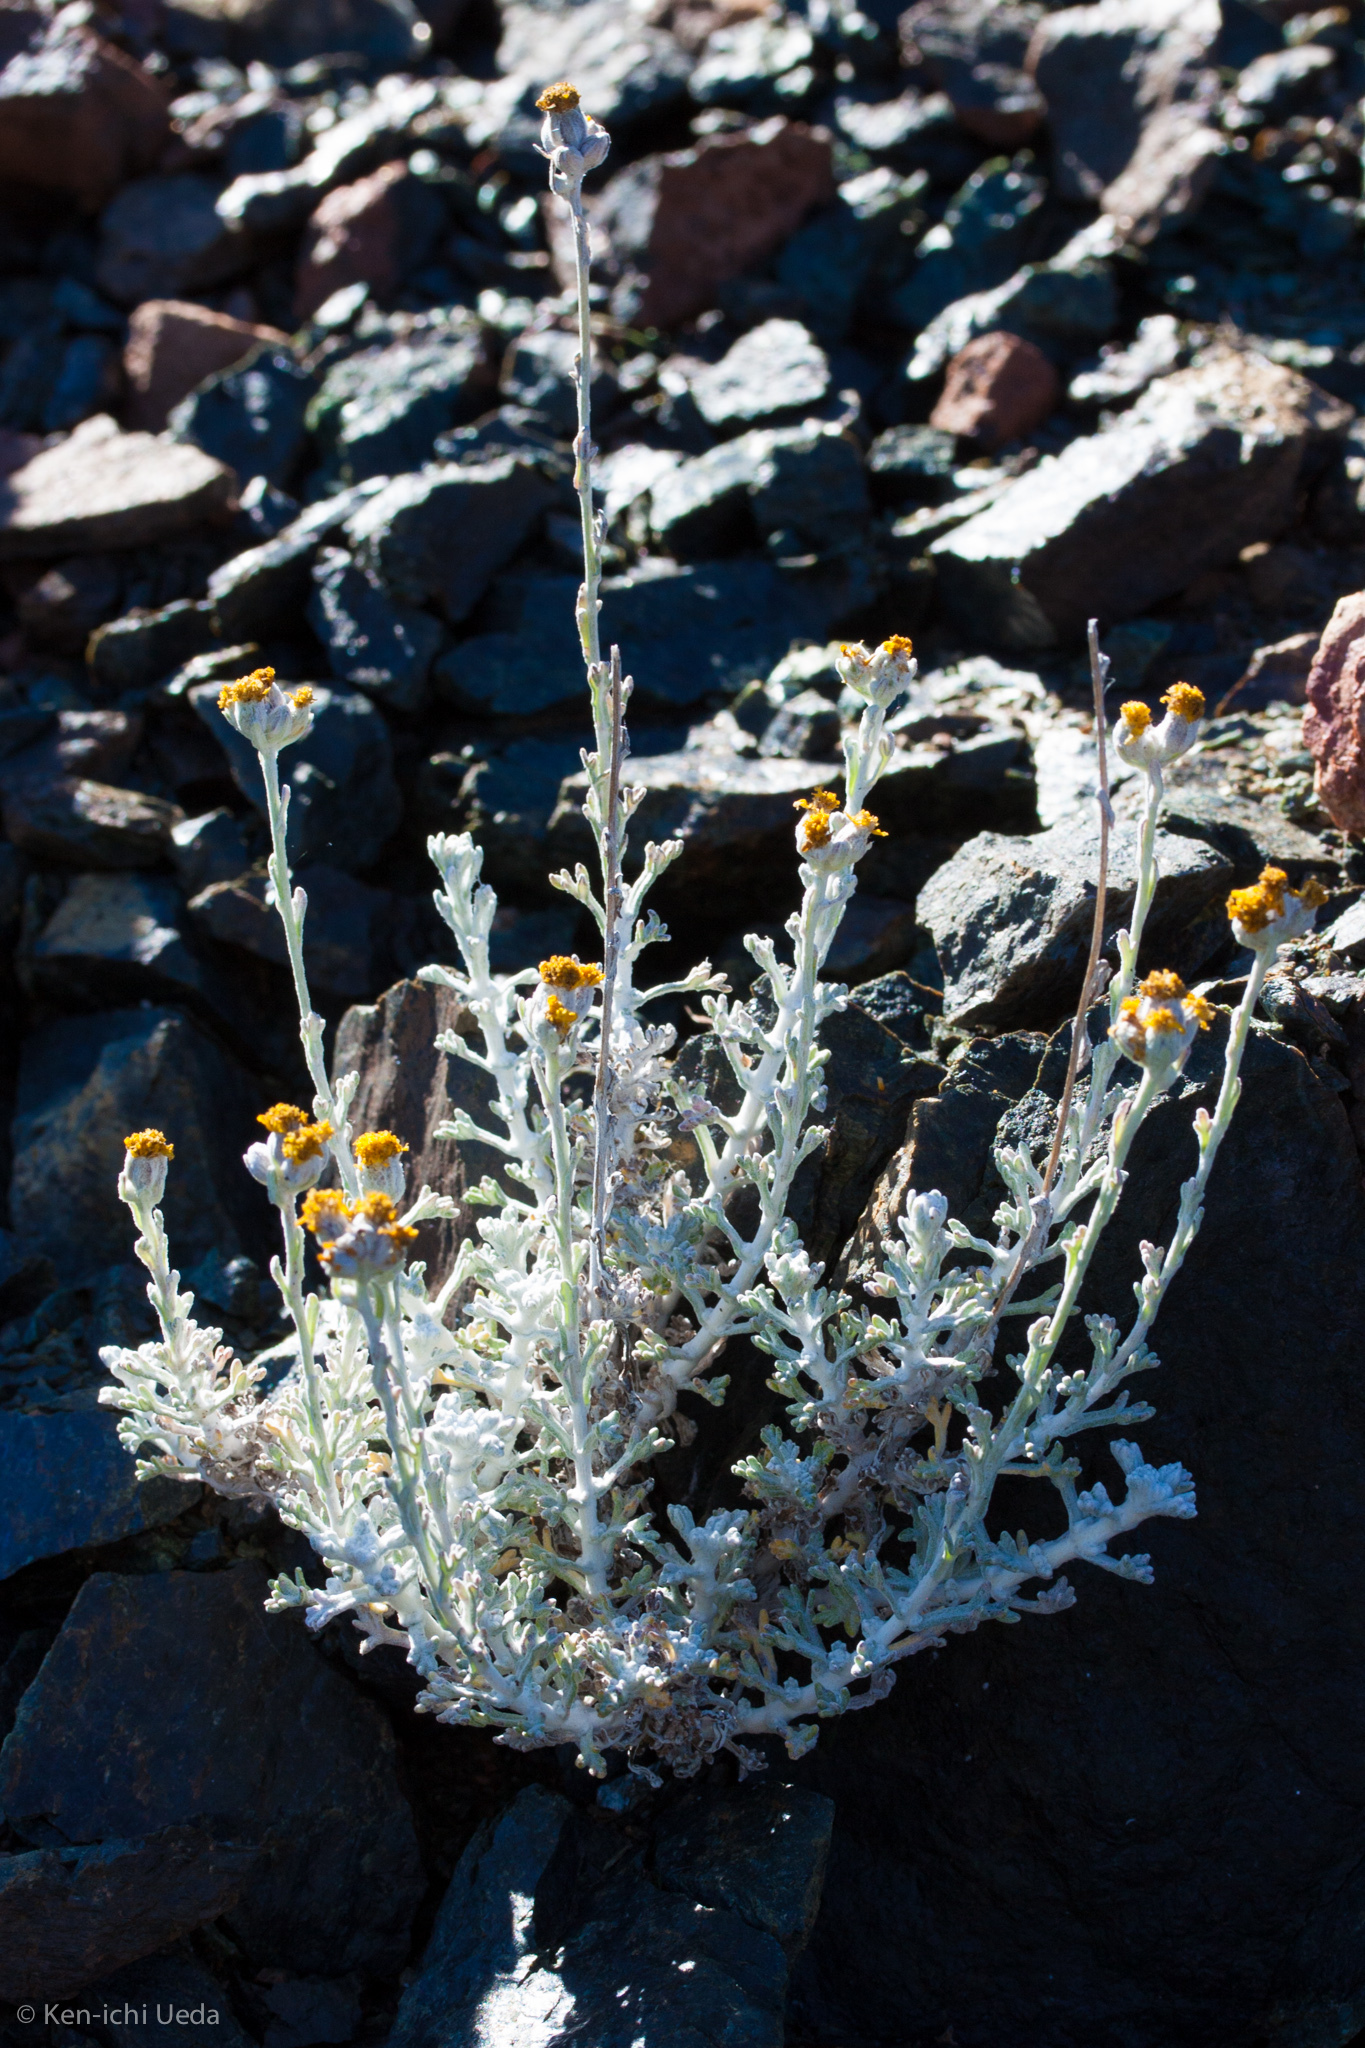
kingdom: Plantae
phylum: Tracheophyta
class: Magnoliopsida
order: Asterales
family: Asteraceae
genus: Eriophyllum
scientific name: Eriophyllum confertiflorum
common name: Golden-yarrow
